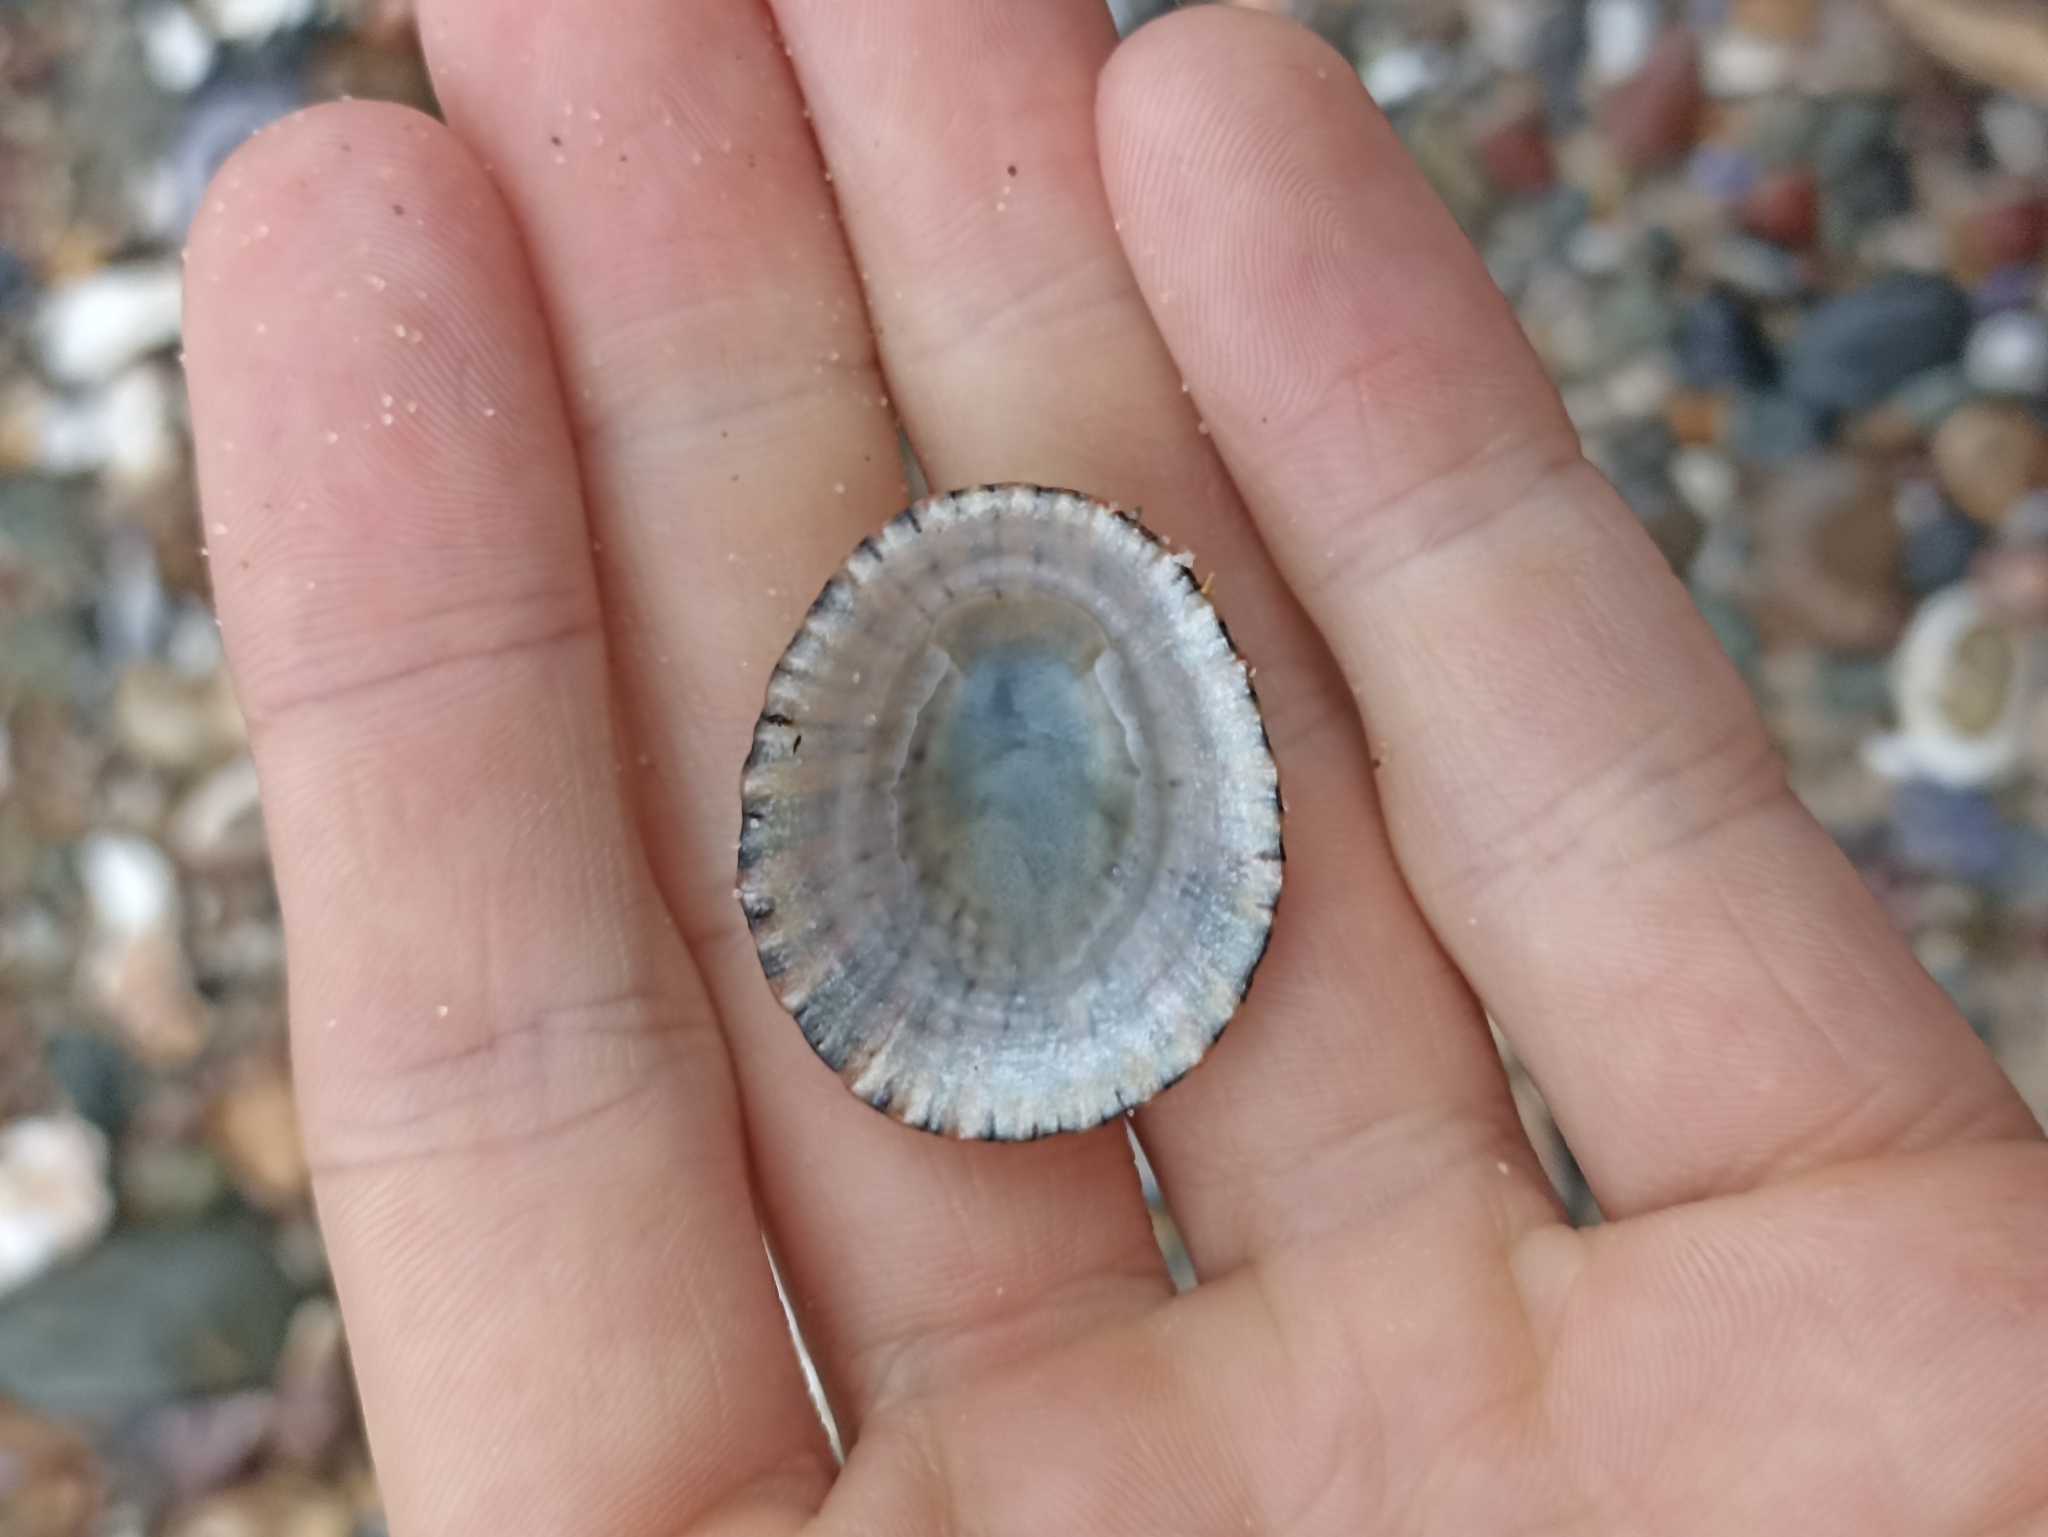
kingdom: Animalia
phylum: Mollusca
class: Gastropoda
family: Nacellidae
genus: Cellana
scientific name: Cellana tramoserica
